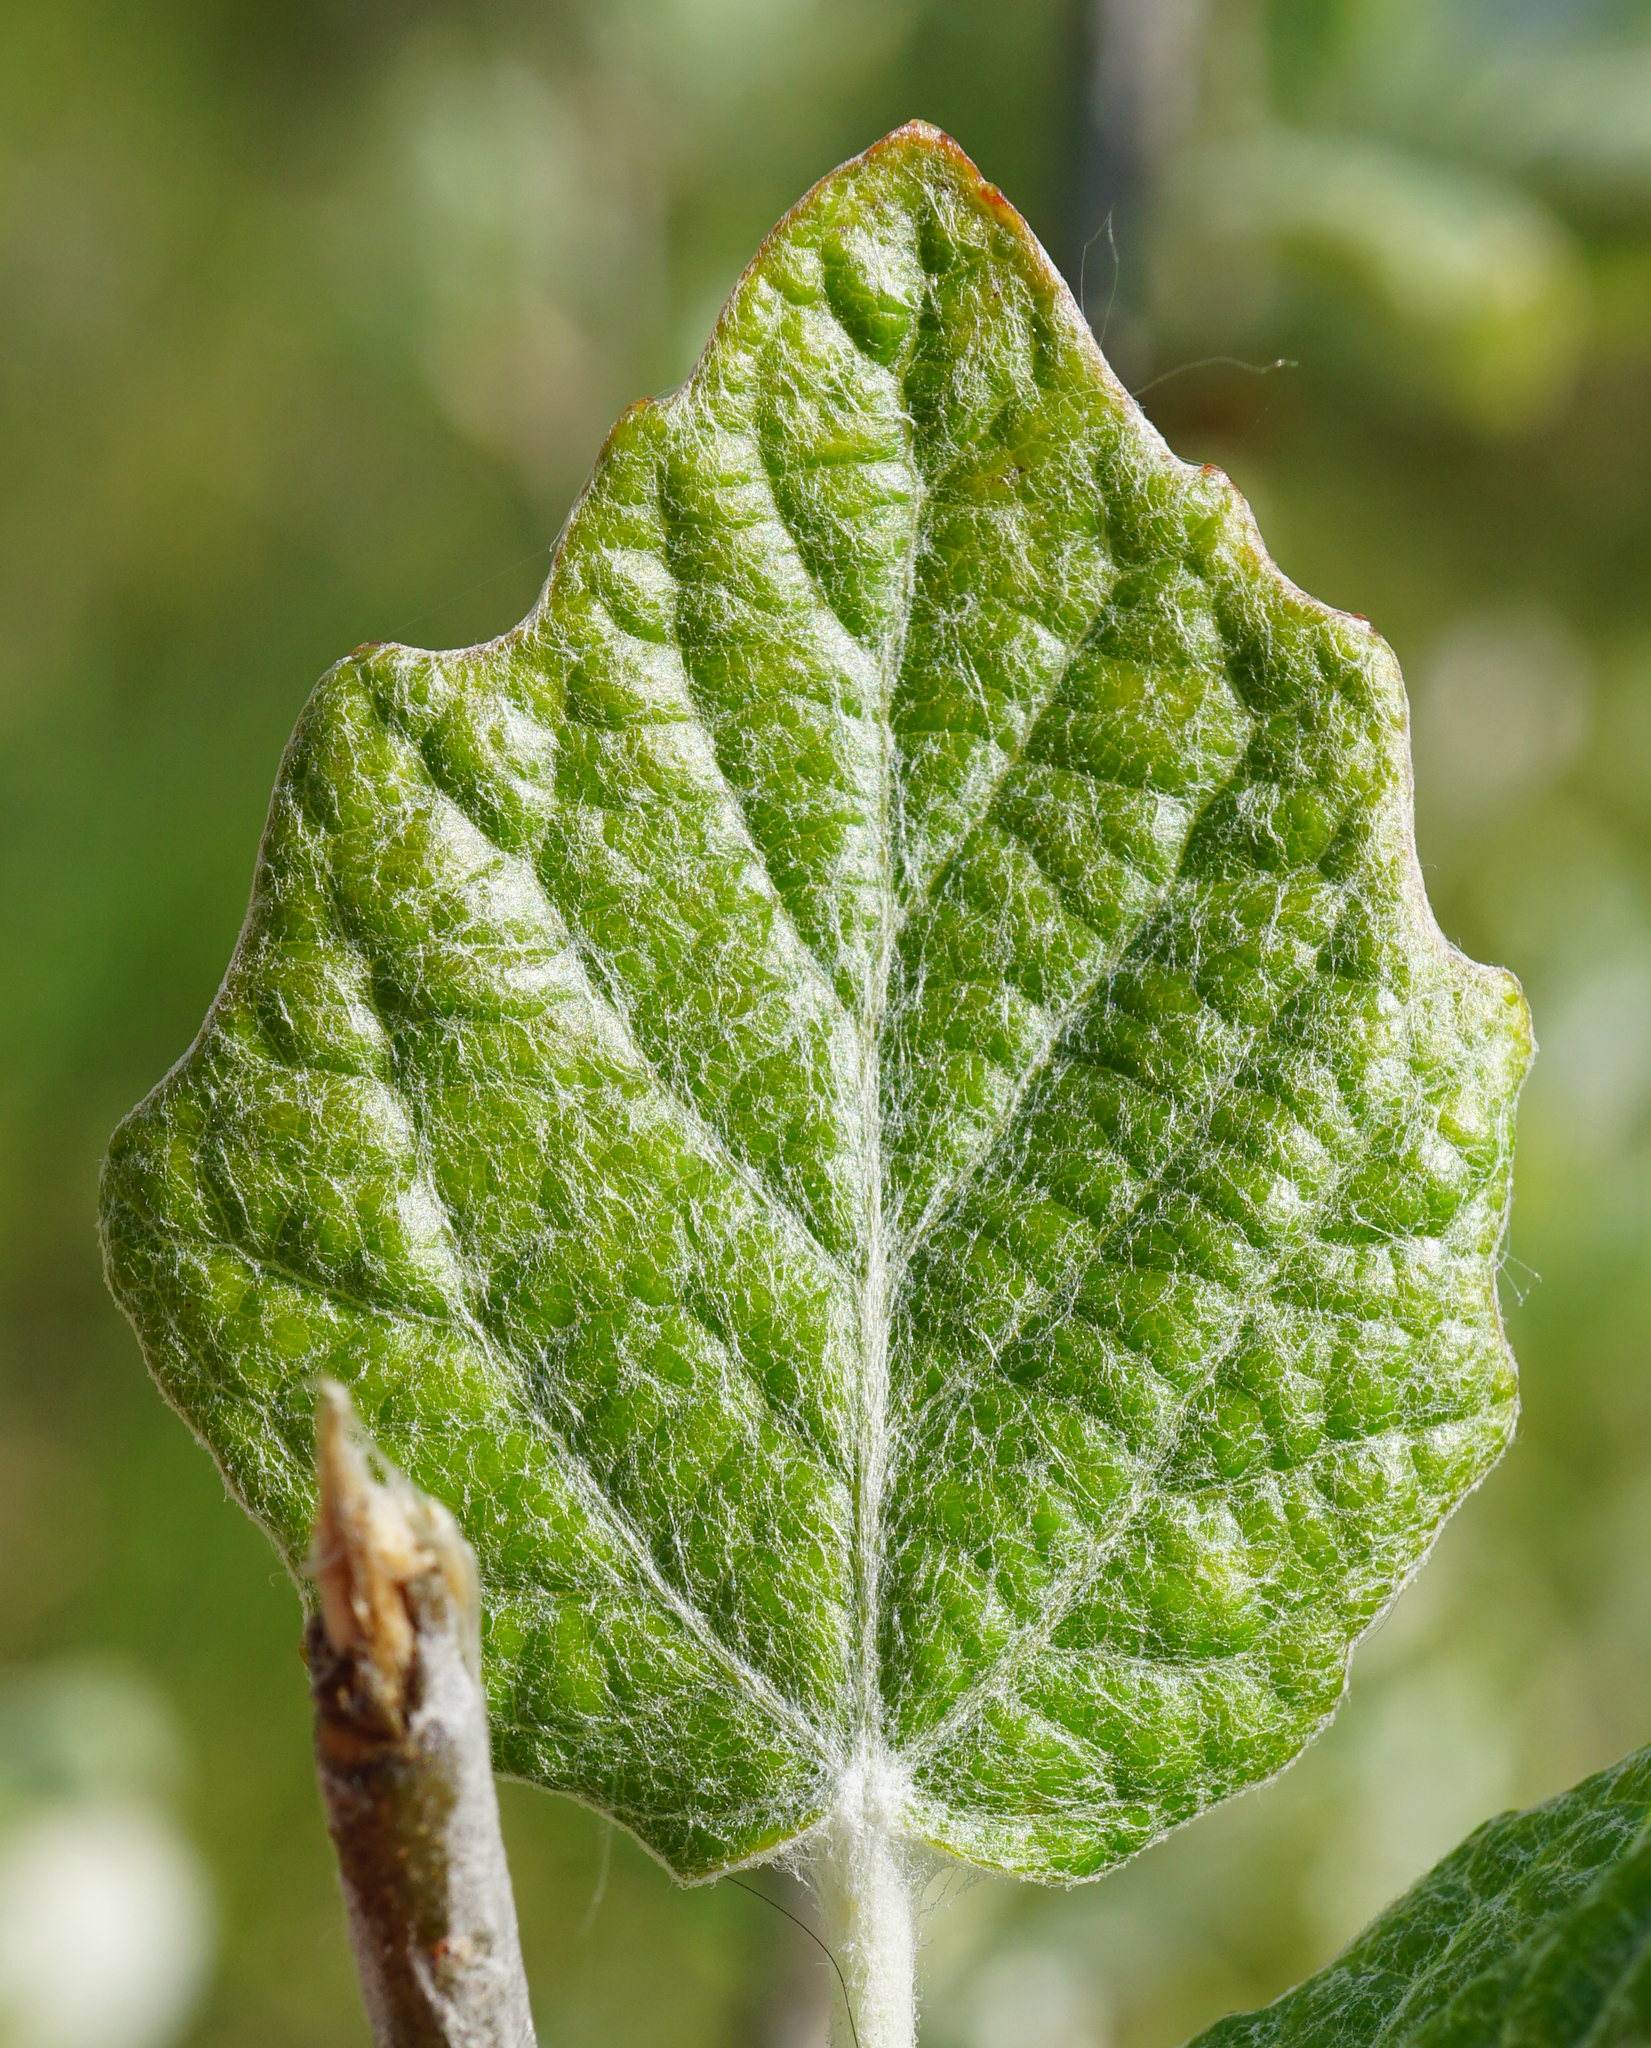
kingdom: Plantae
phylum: Tracheophyta
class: Magnoliopsida
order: Malpighiales
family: Salicaceae
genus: Populus
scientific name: Populus alba
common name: White poplar
